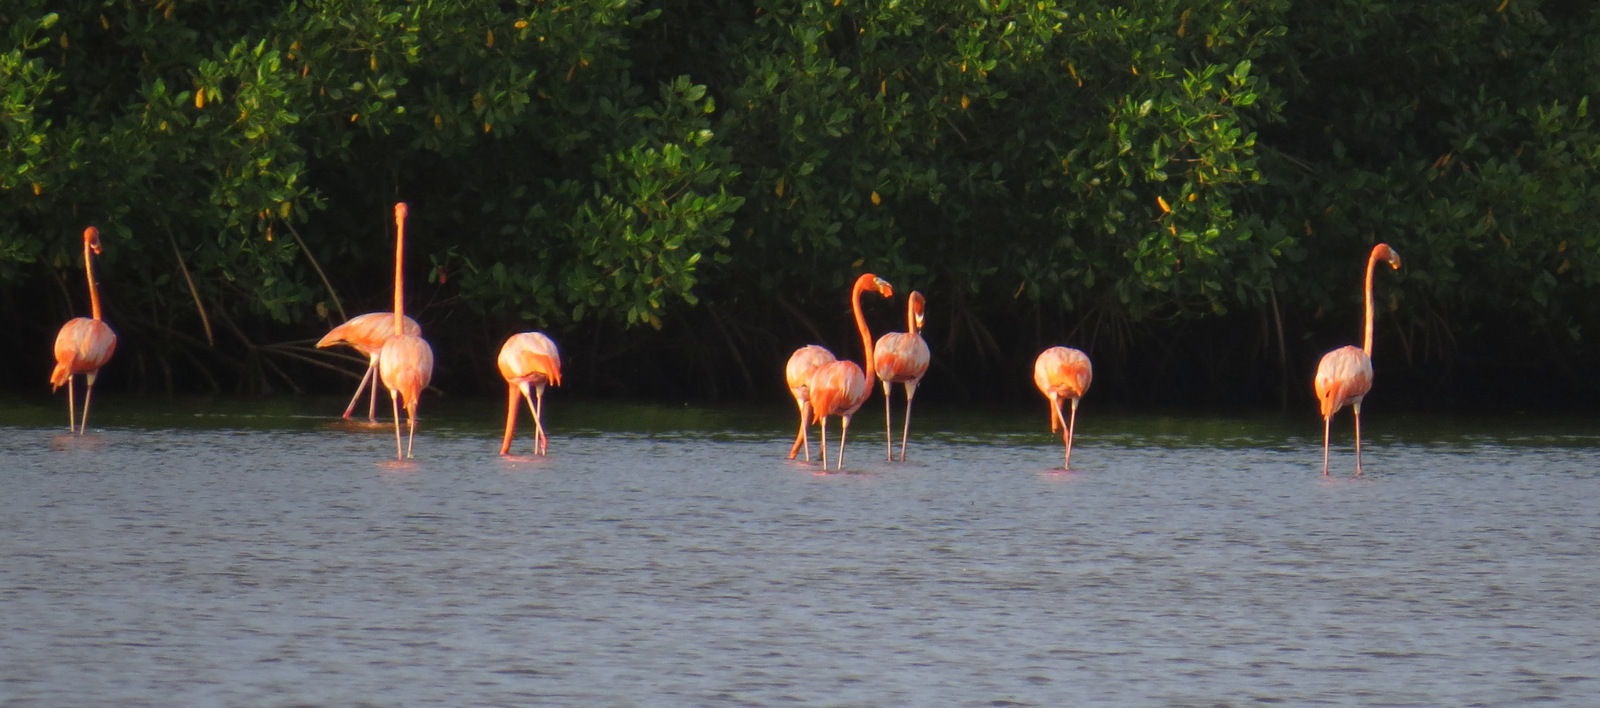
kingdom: Animalia
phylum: Chordata
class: Aves
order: Phoenicopteriformes
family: Phoenicopteridae
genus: Phoenicopterus
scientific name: Phoenicopterus ruber
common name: American flamingo
